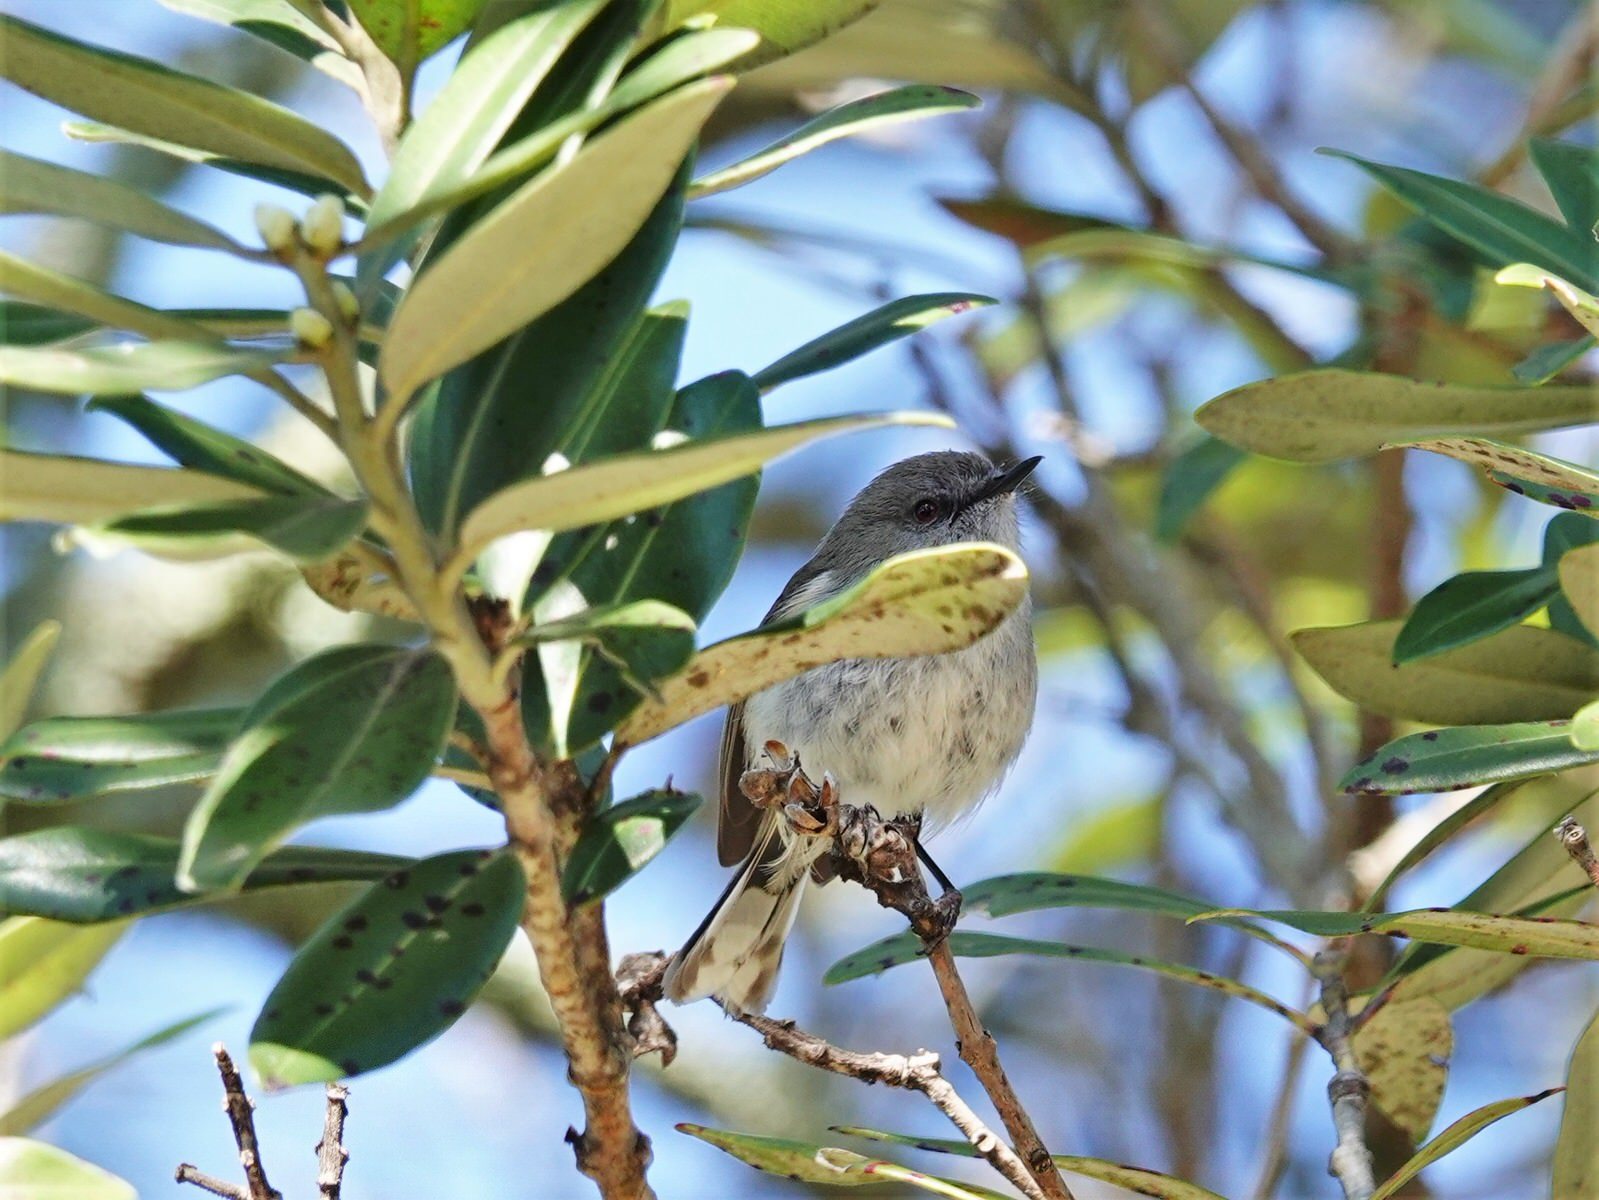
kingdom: Animalia
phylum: Chordata
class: Aves
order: Passeriformes
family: Acanthizidae
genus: Gerygone
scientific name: Gerygone igata
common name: Grey gerygone
